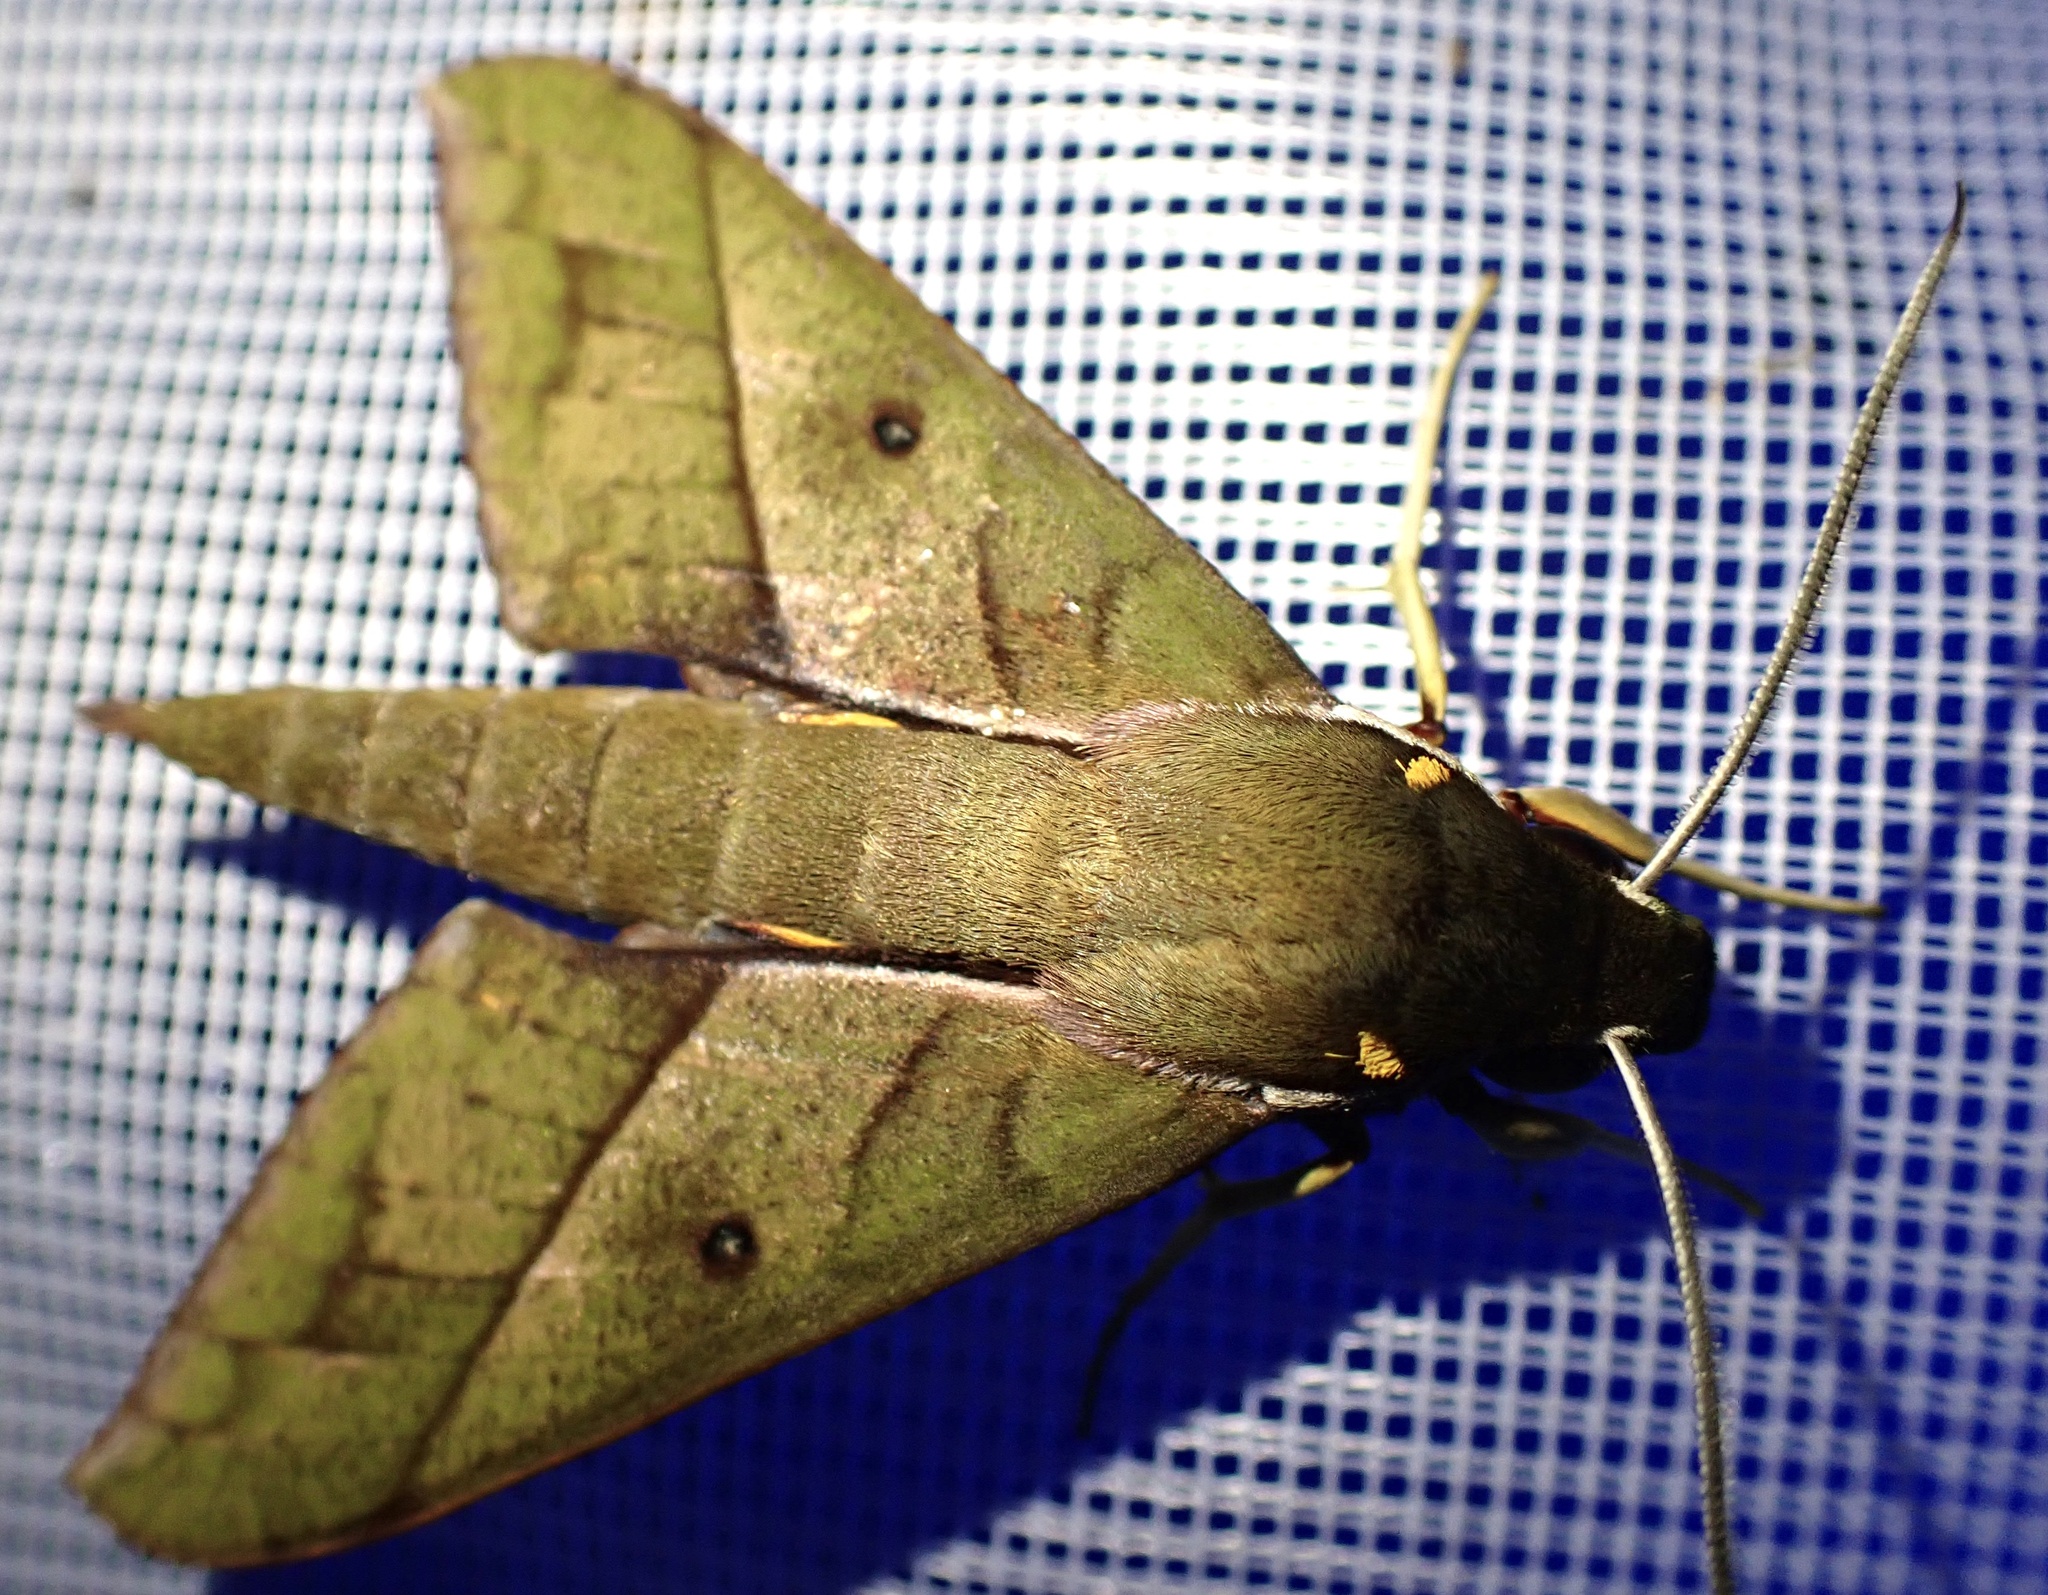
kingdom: Animalia
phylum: Arthropoda
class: Insecta
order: Lepidoptera
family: Sphingidae
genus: Gnathothlibus
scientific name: Gnathothlibus heliodes
